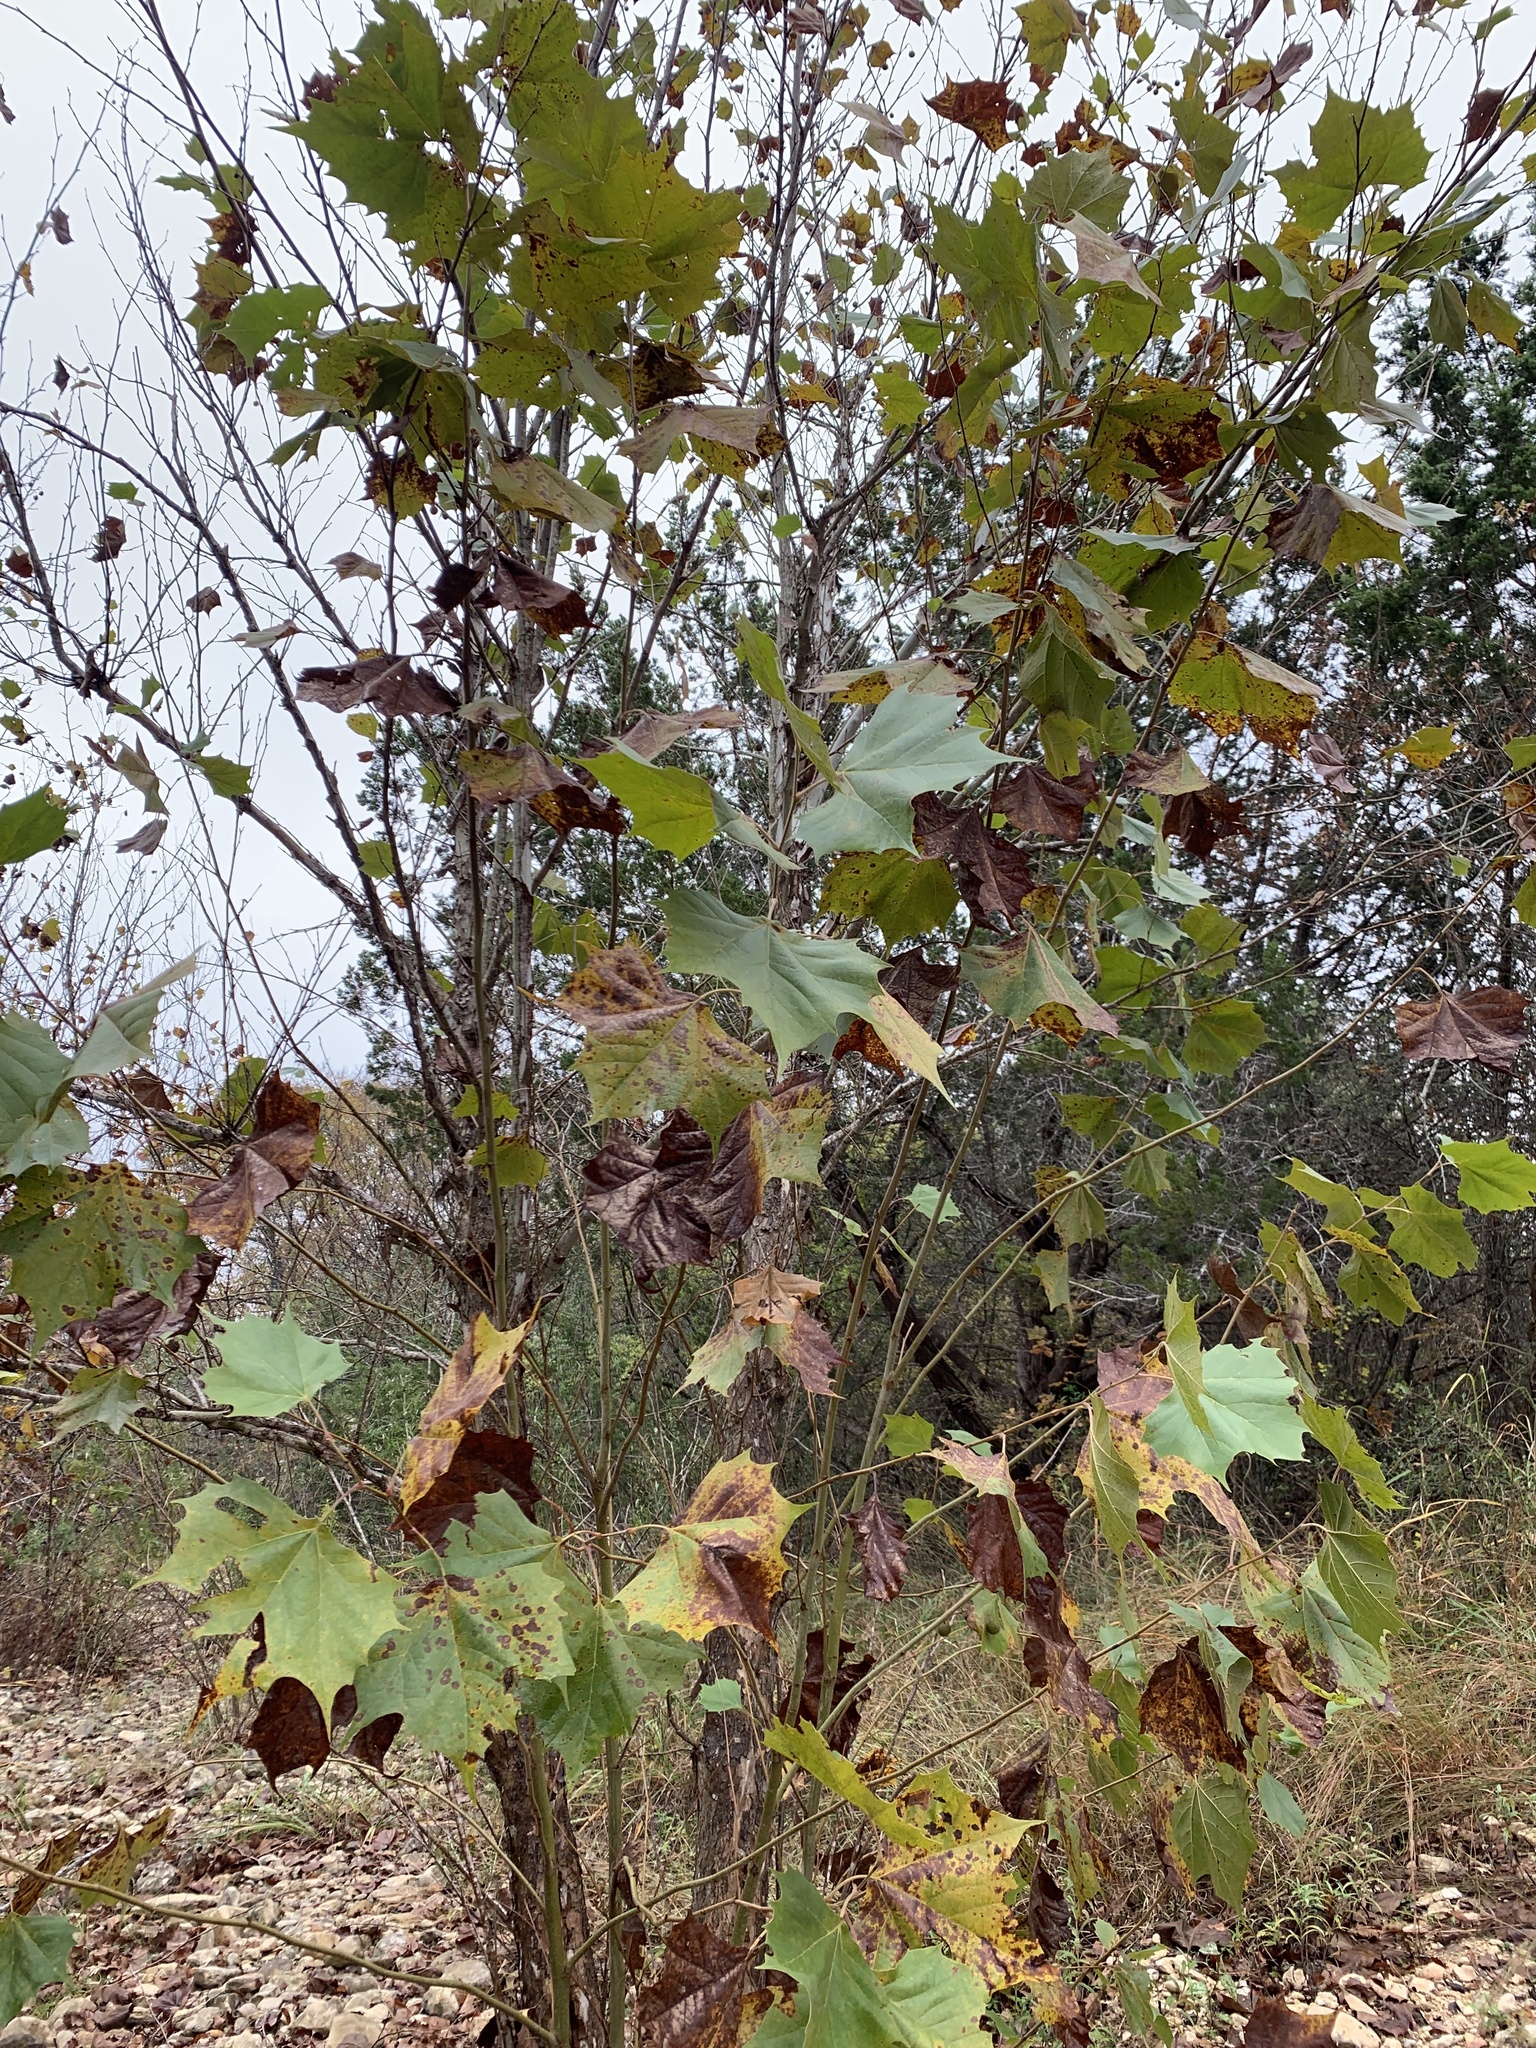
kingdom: Plantae
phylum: Tracheophyta
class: Magnoliopsida
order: Proteales
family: Platanaceae
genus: Platanus
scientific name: Platanus occidentalis
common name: American sycamore
